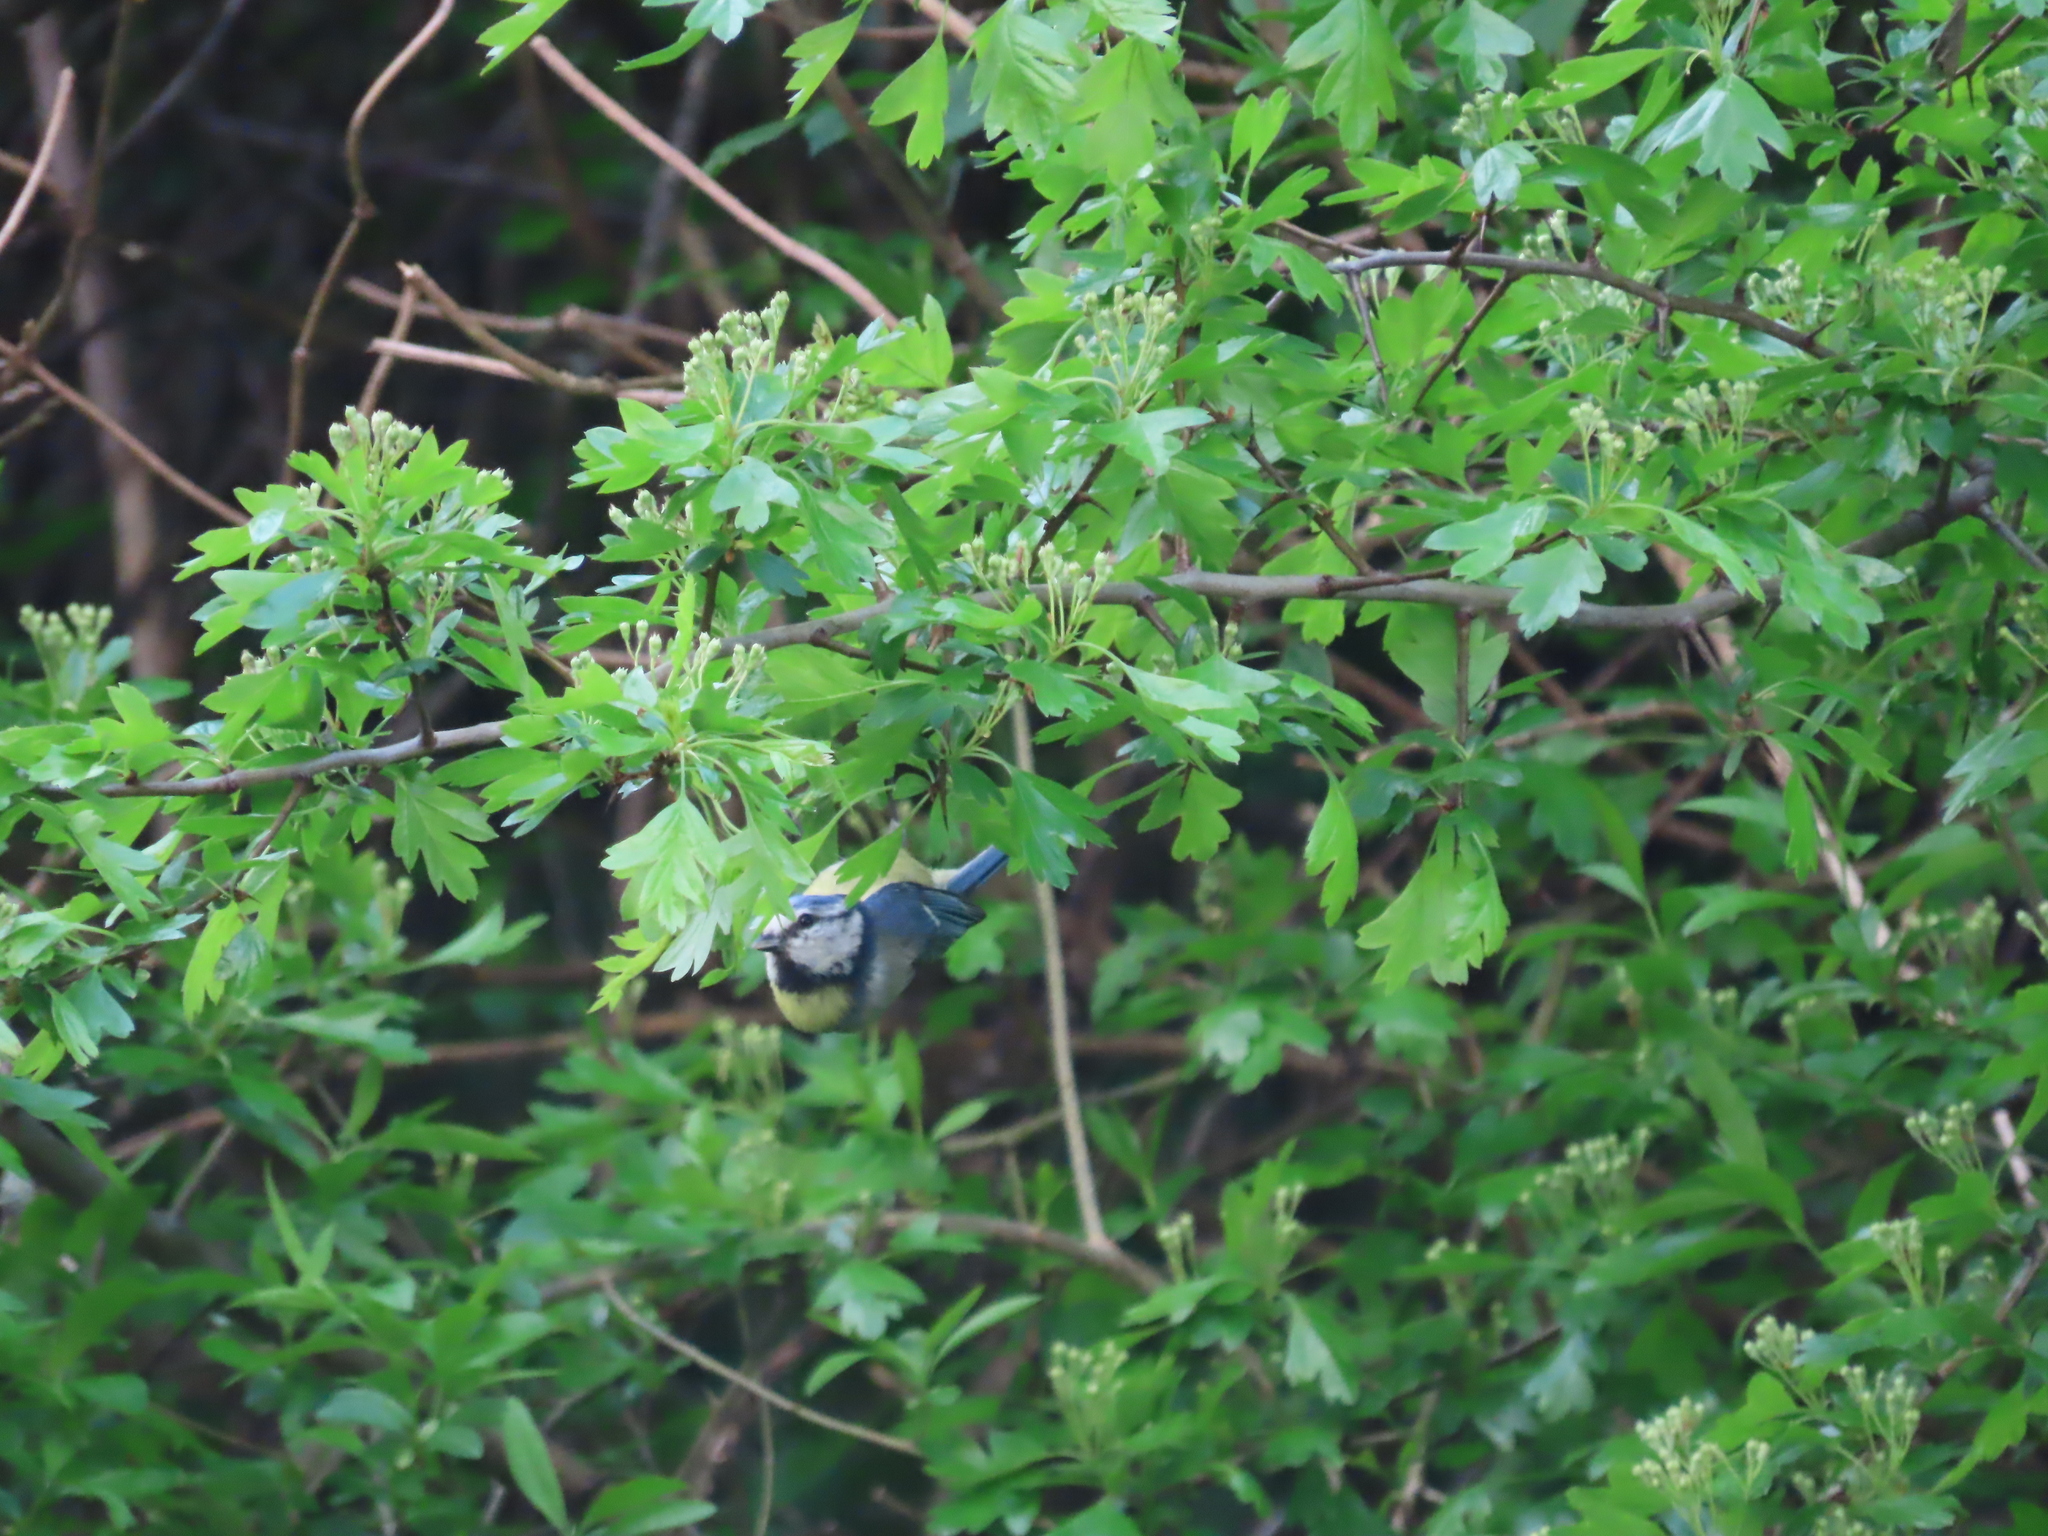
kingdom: Animalia
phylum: Chordata
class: Aves
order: Passeriformes
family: Paridae
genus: Cyanistes
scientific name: Cyanistes caeruleus
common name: Eurasian blue tit
